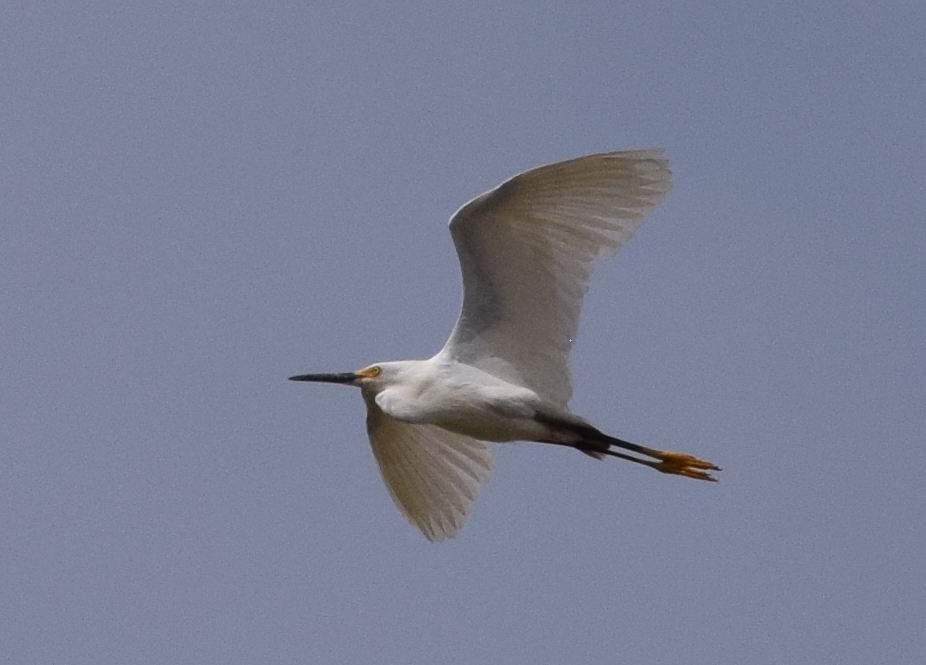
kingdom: Animalia
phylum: Chordata
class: Aves
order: Pelecaniformes
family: Ardeidae
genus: Egretta
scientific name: Egretta thula
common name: Snowy egret
